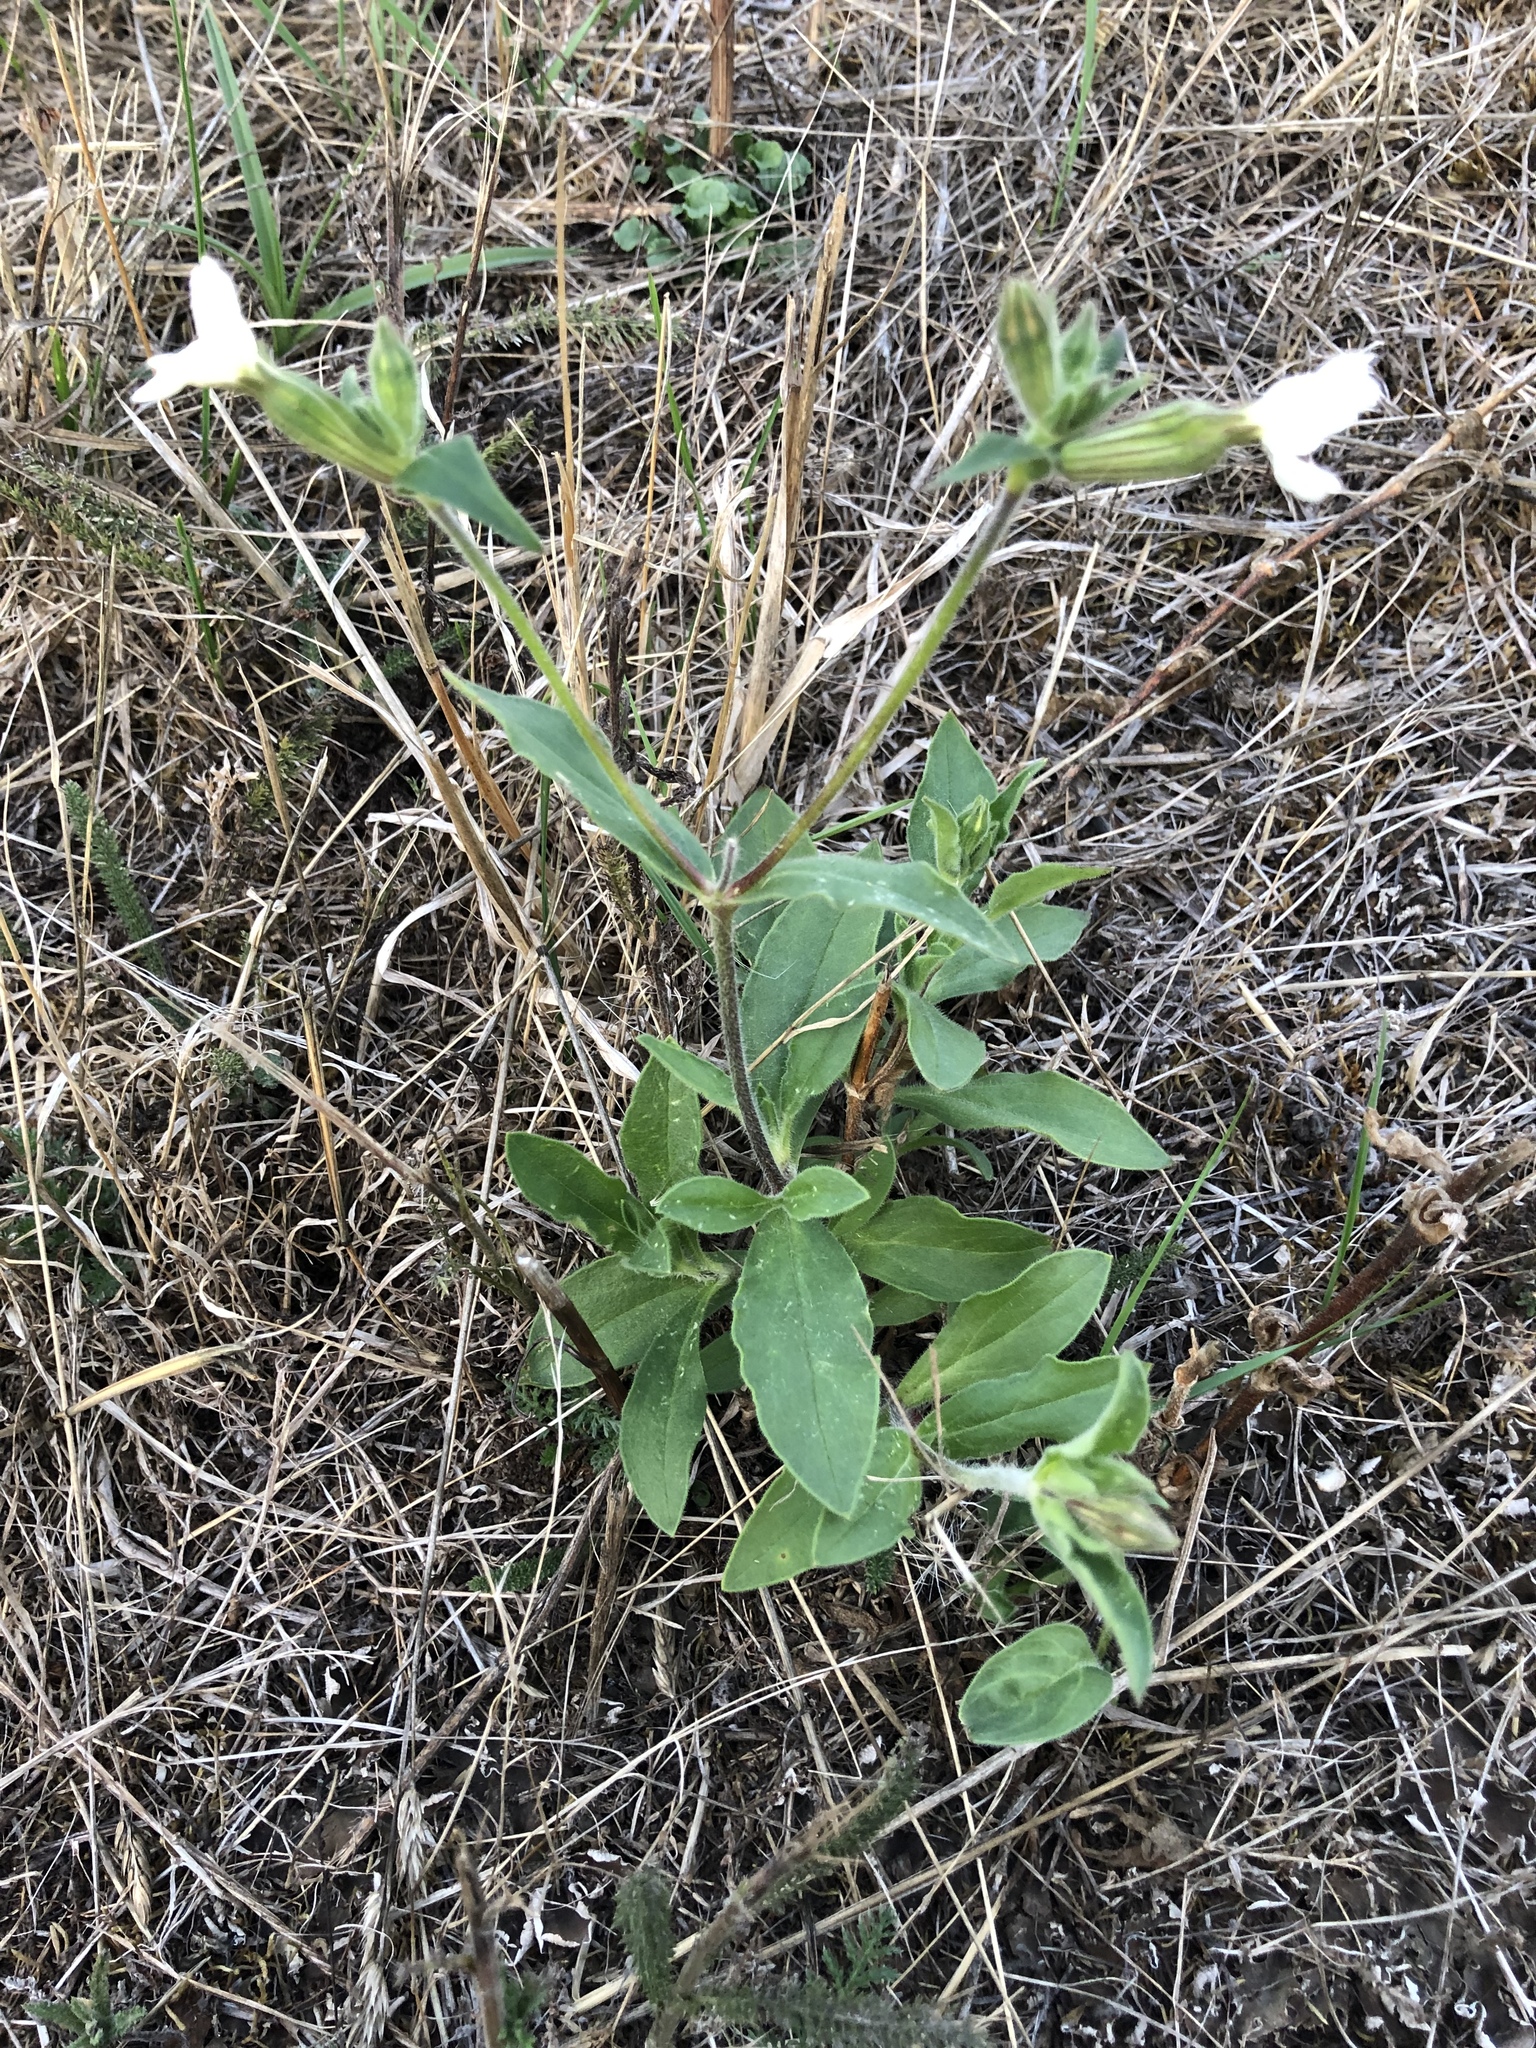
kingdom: Plantae
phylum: Tracheophyta
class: Magnoliopsida
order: Caryophyllales
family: Caryophyllaceae
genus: Silene
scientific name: Silene latifolia
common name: White campion
